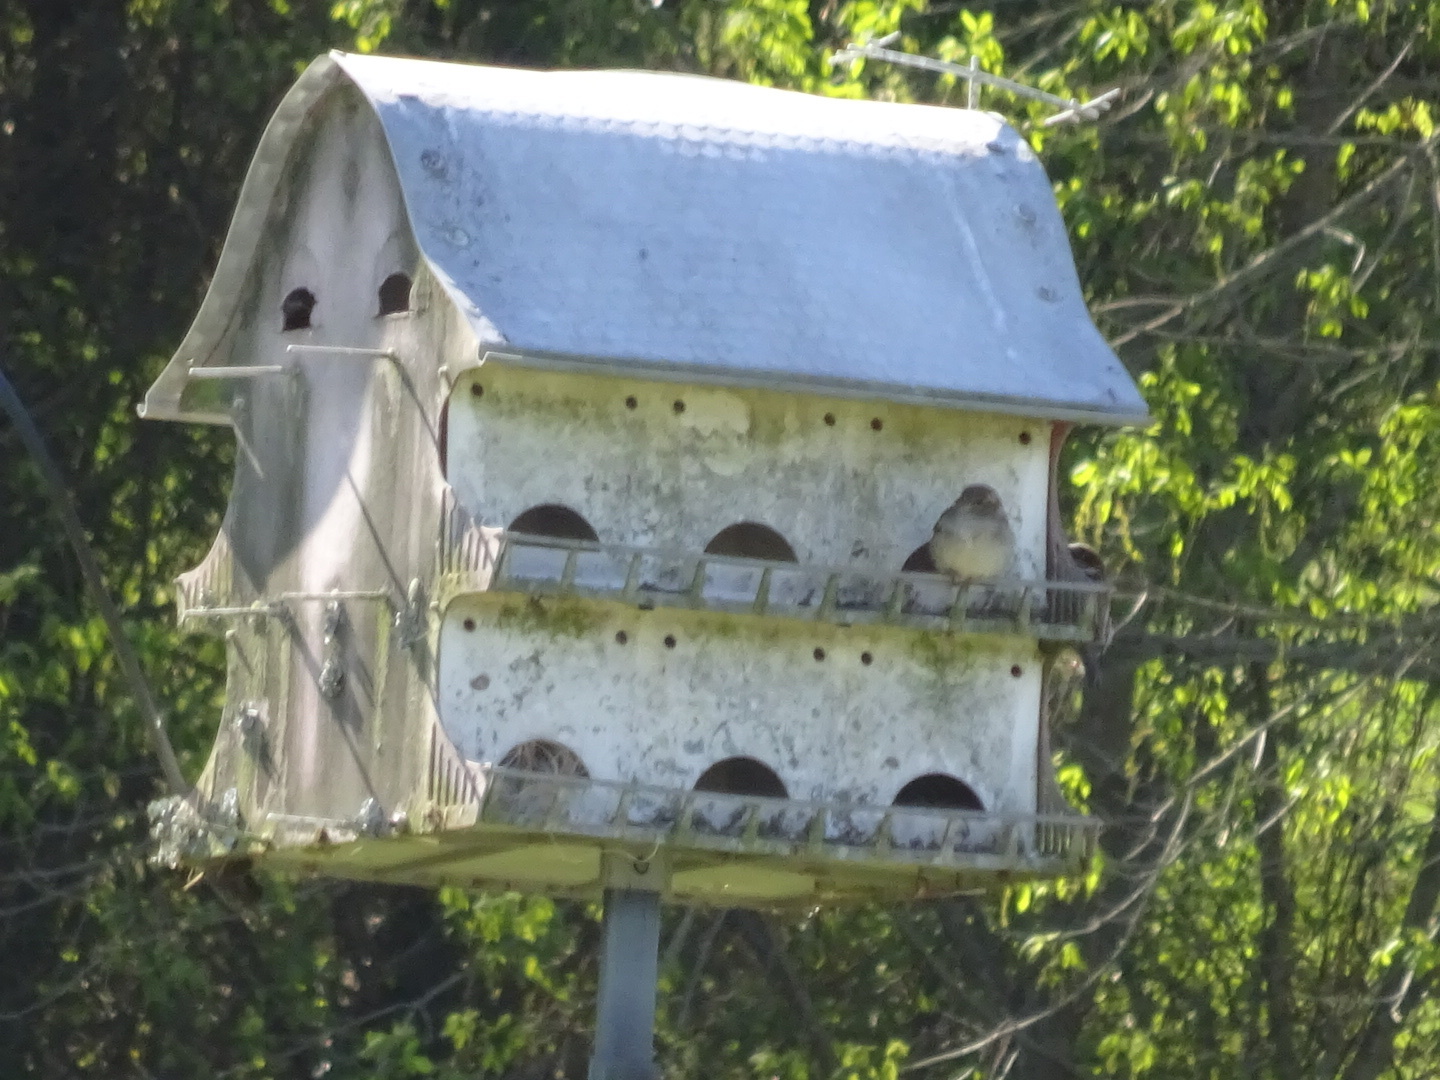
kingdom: Animalia
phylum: Chordata
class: Aves
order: Passeriformes
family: Passeridae
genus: Passer
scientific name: Passer domesticus
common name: House sparrow
